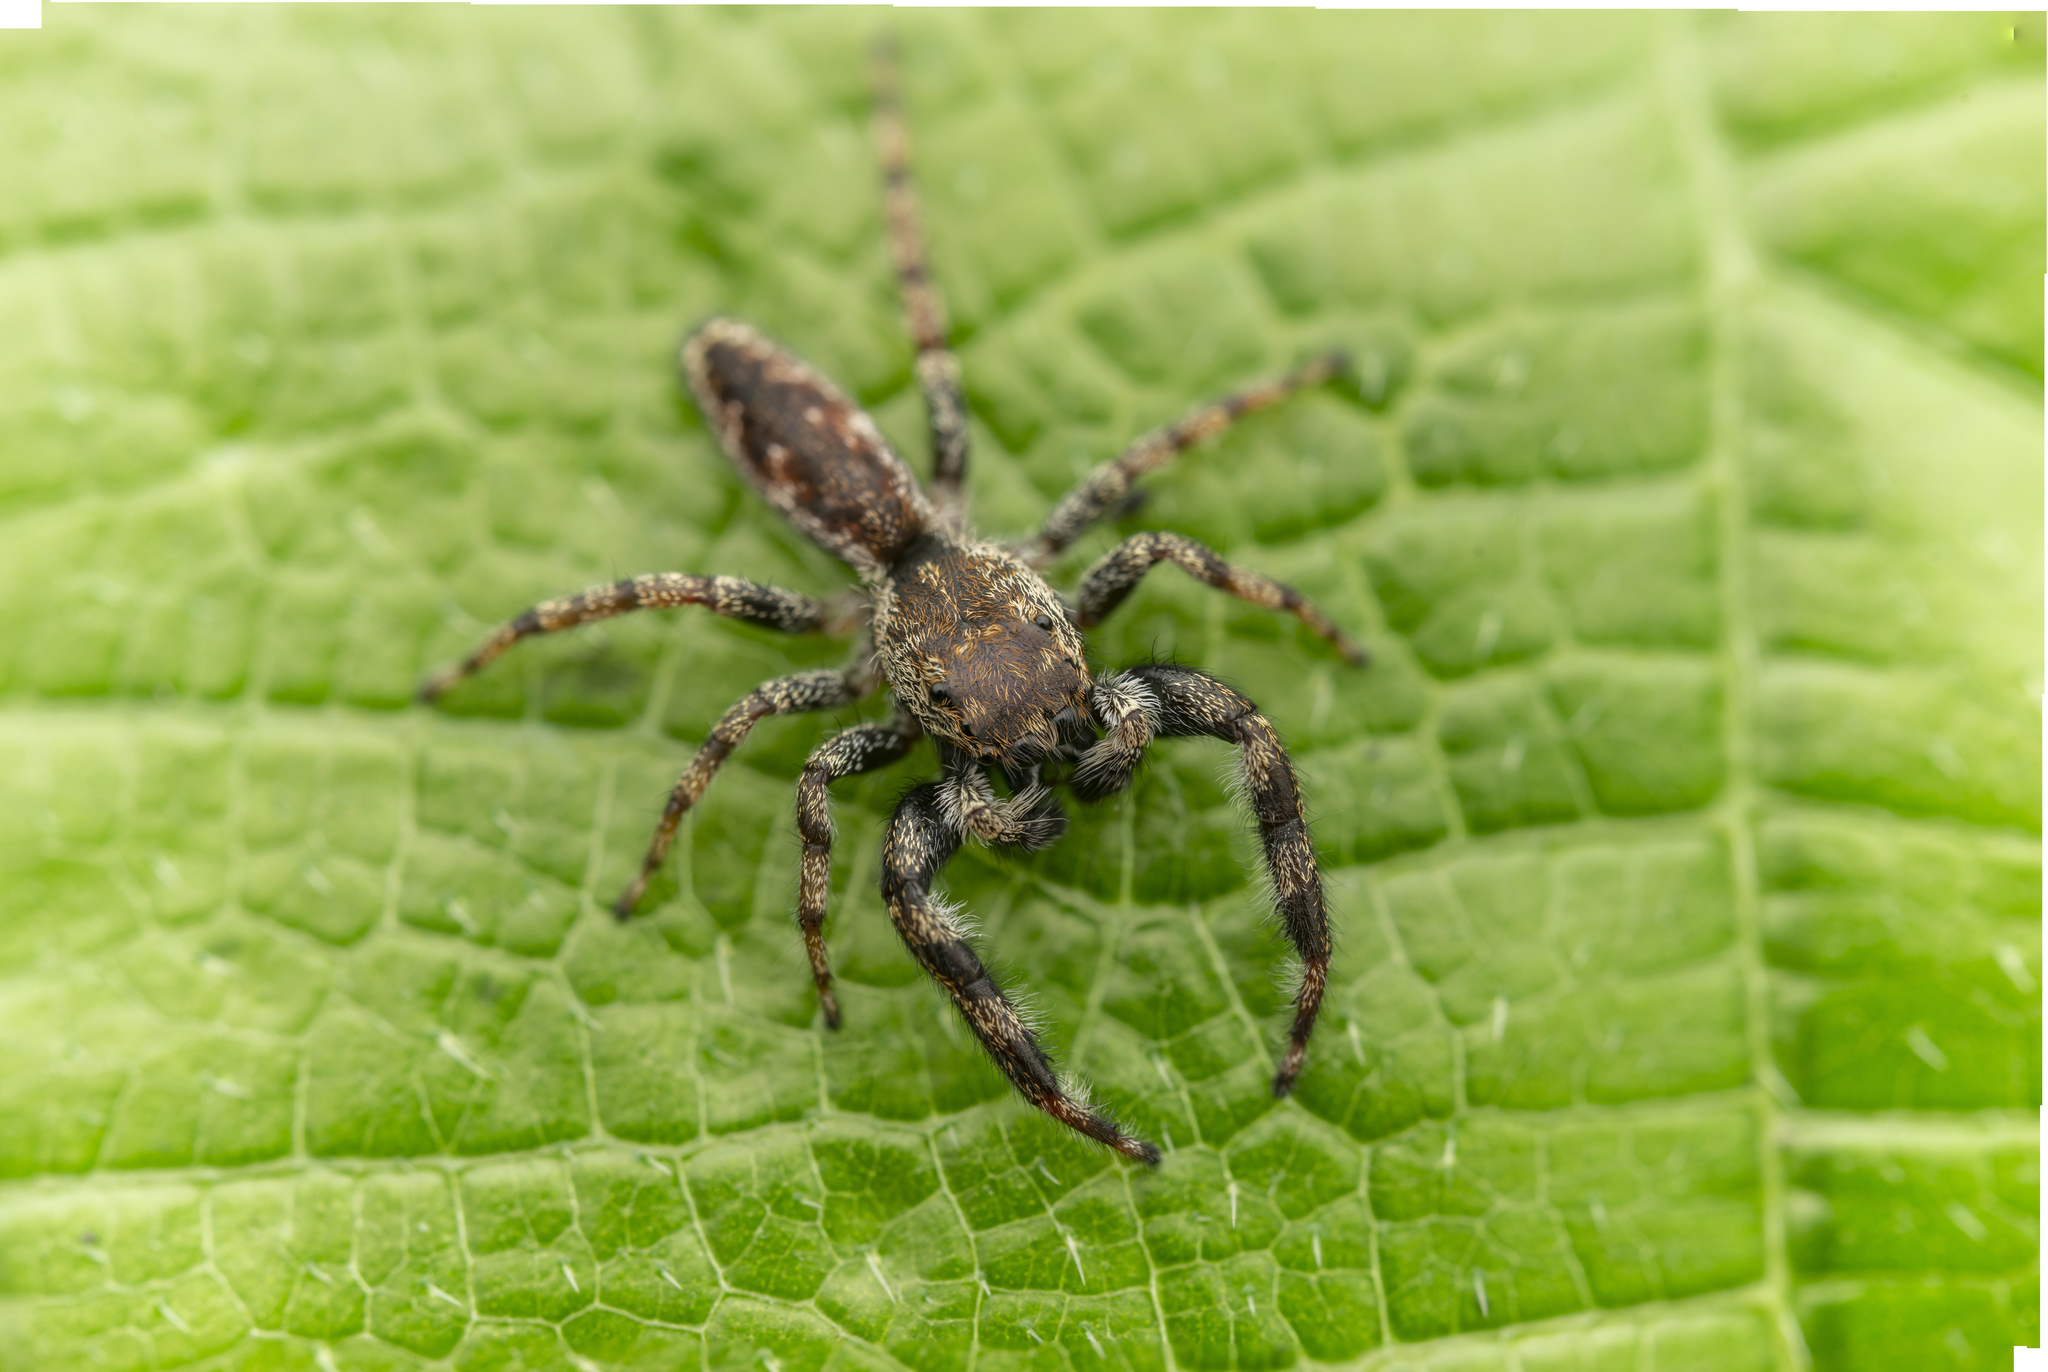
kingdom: Animalia
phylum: Arthropoda
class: Arachnida
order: Araneae
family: Salticidae
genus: Kelawakaju
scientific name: Kelawakaju frenata
